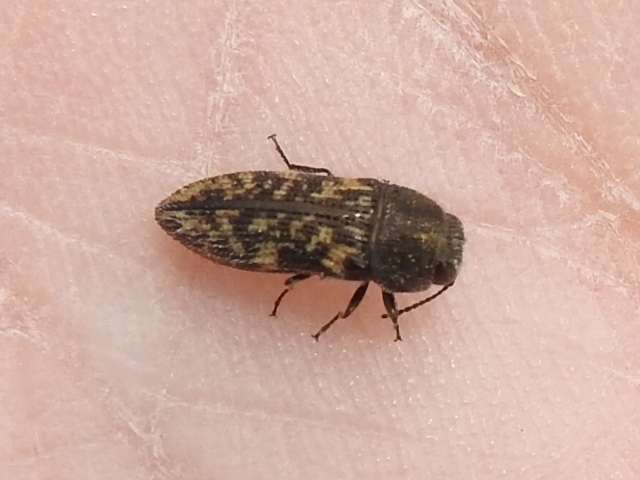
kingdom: Animalia
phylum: Arthropoda
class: Insecta
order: Coleoptera
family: Buprestidae
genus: Acmaeodera
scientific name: Acmaeodera neglecta
